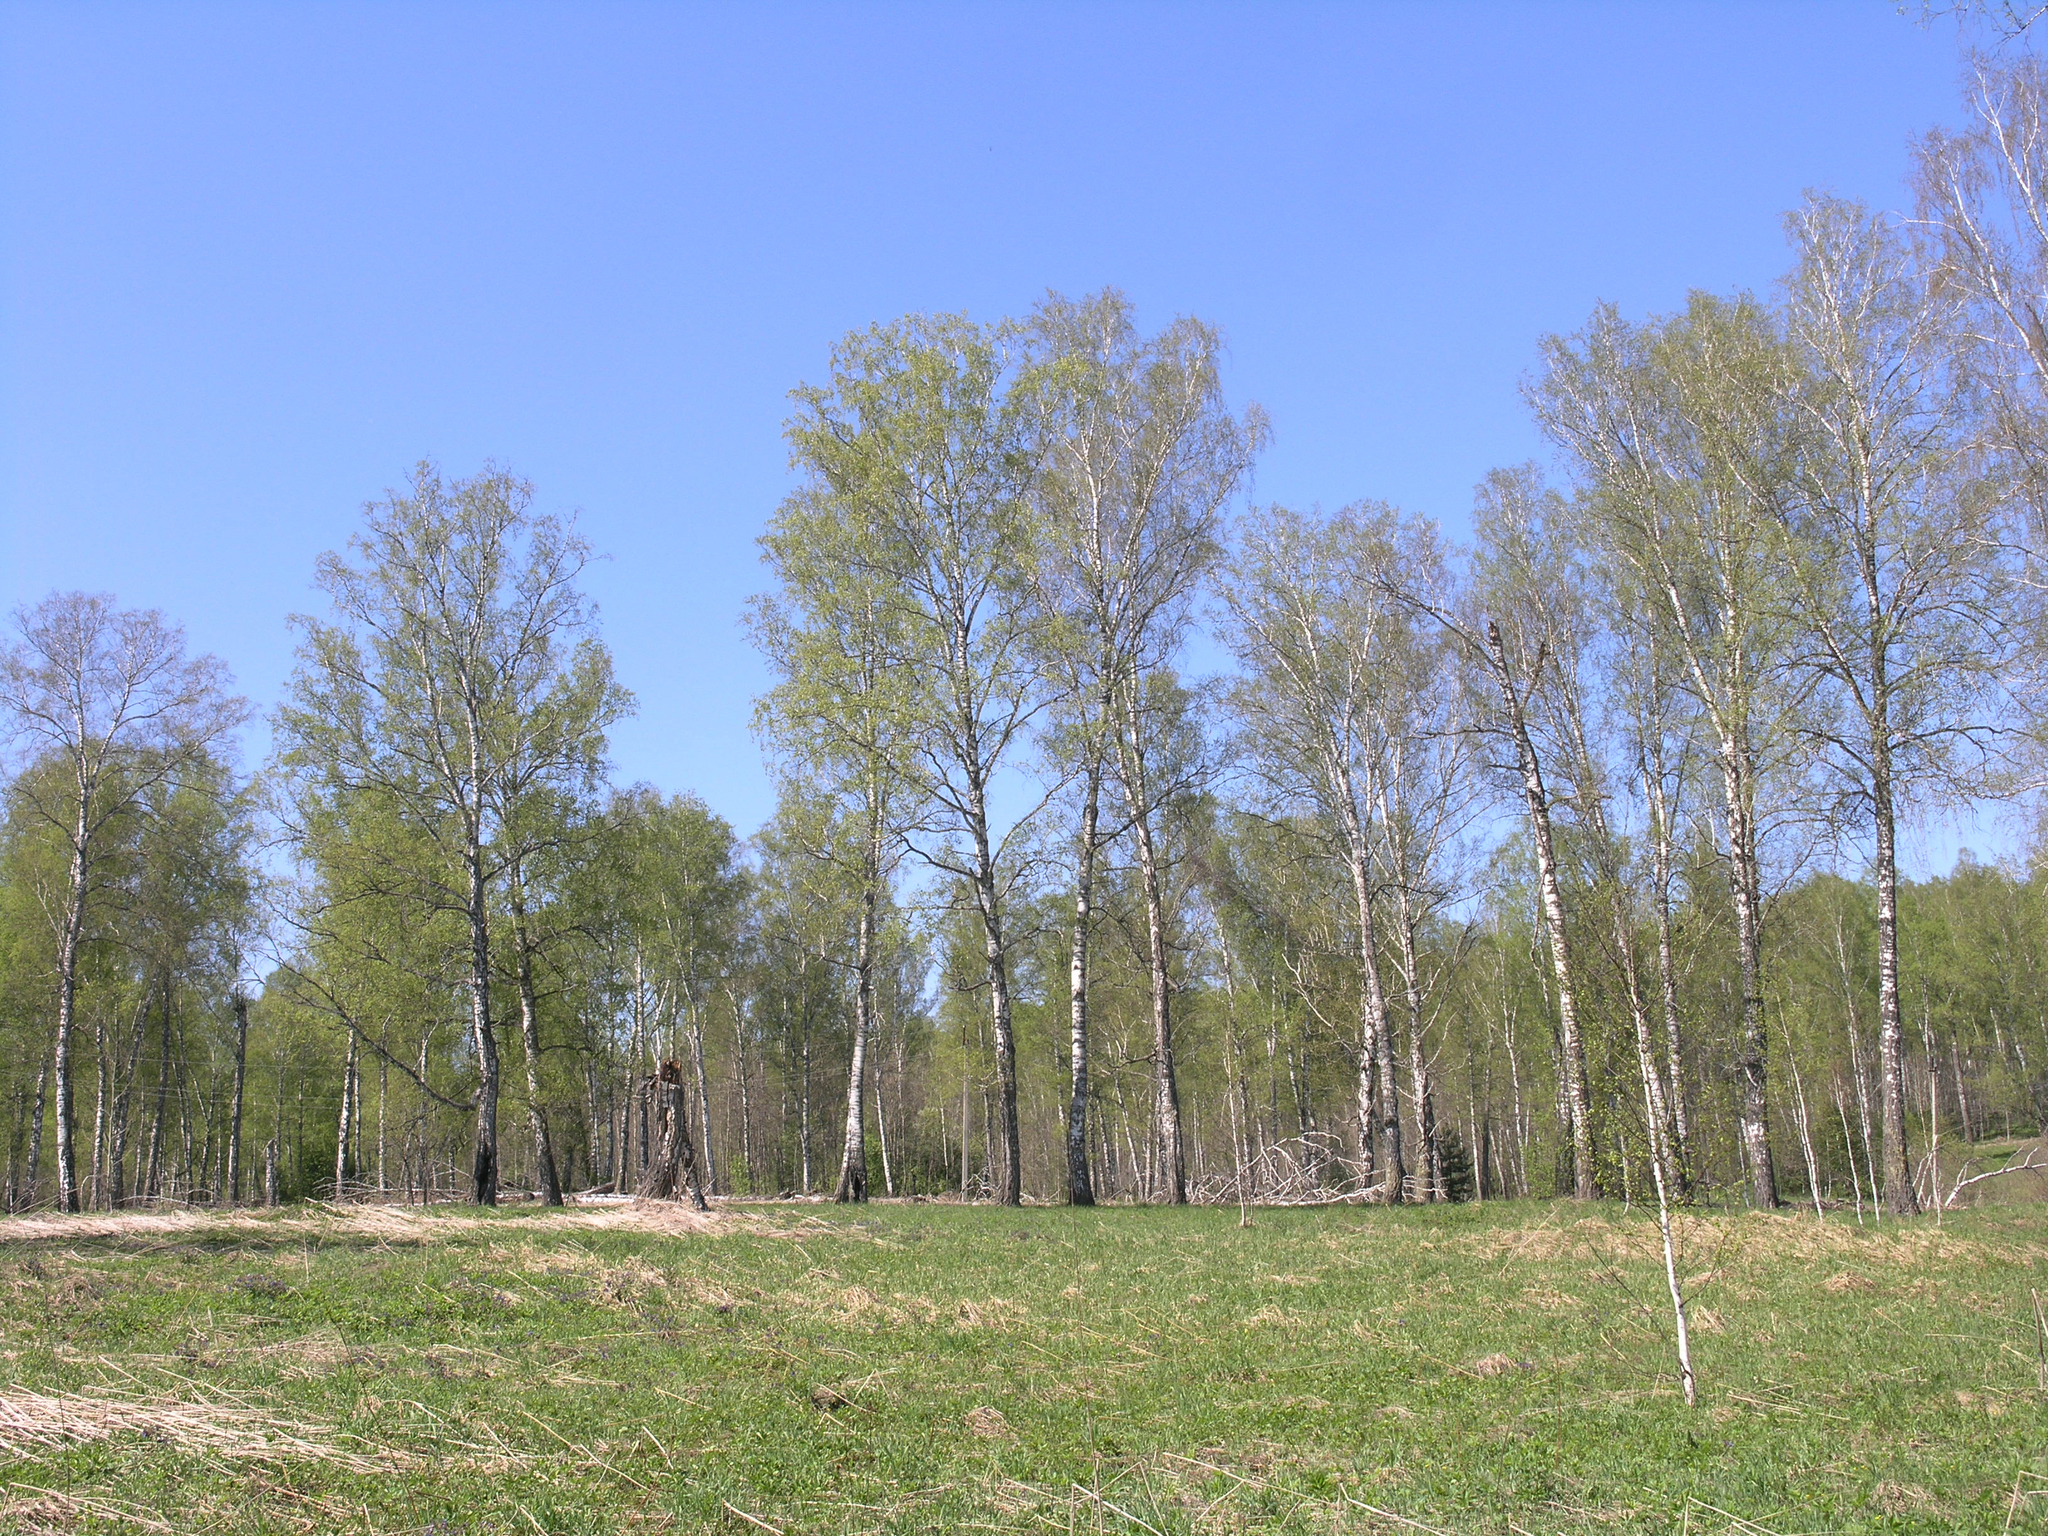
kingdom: Plantae
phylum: Tracheophyta
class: Magnoliopsida
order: Fagales
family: Betulaceae
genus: Betula
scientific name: Betula pendula
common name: Silver birch
